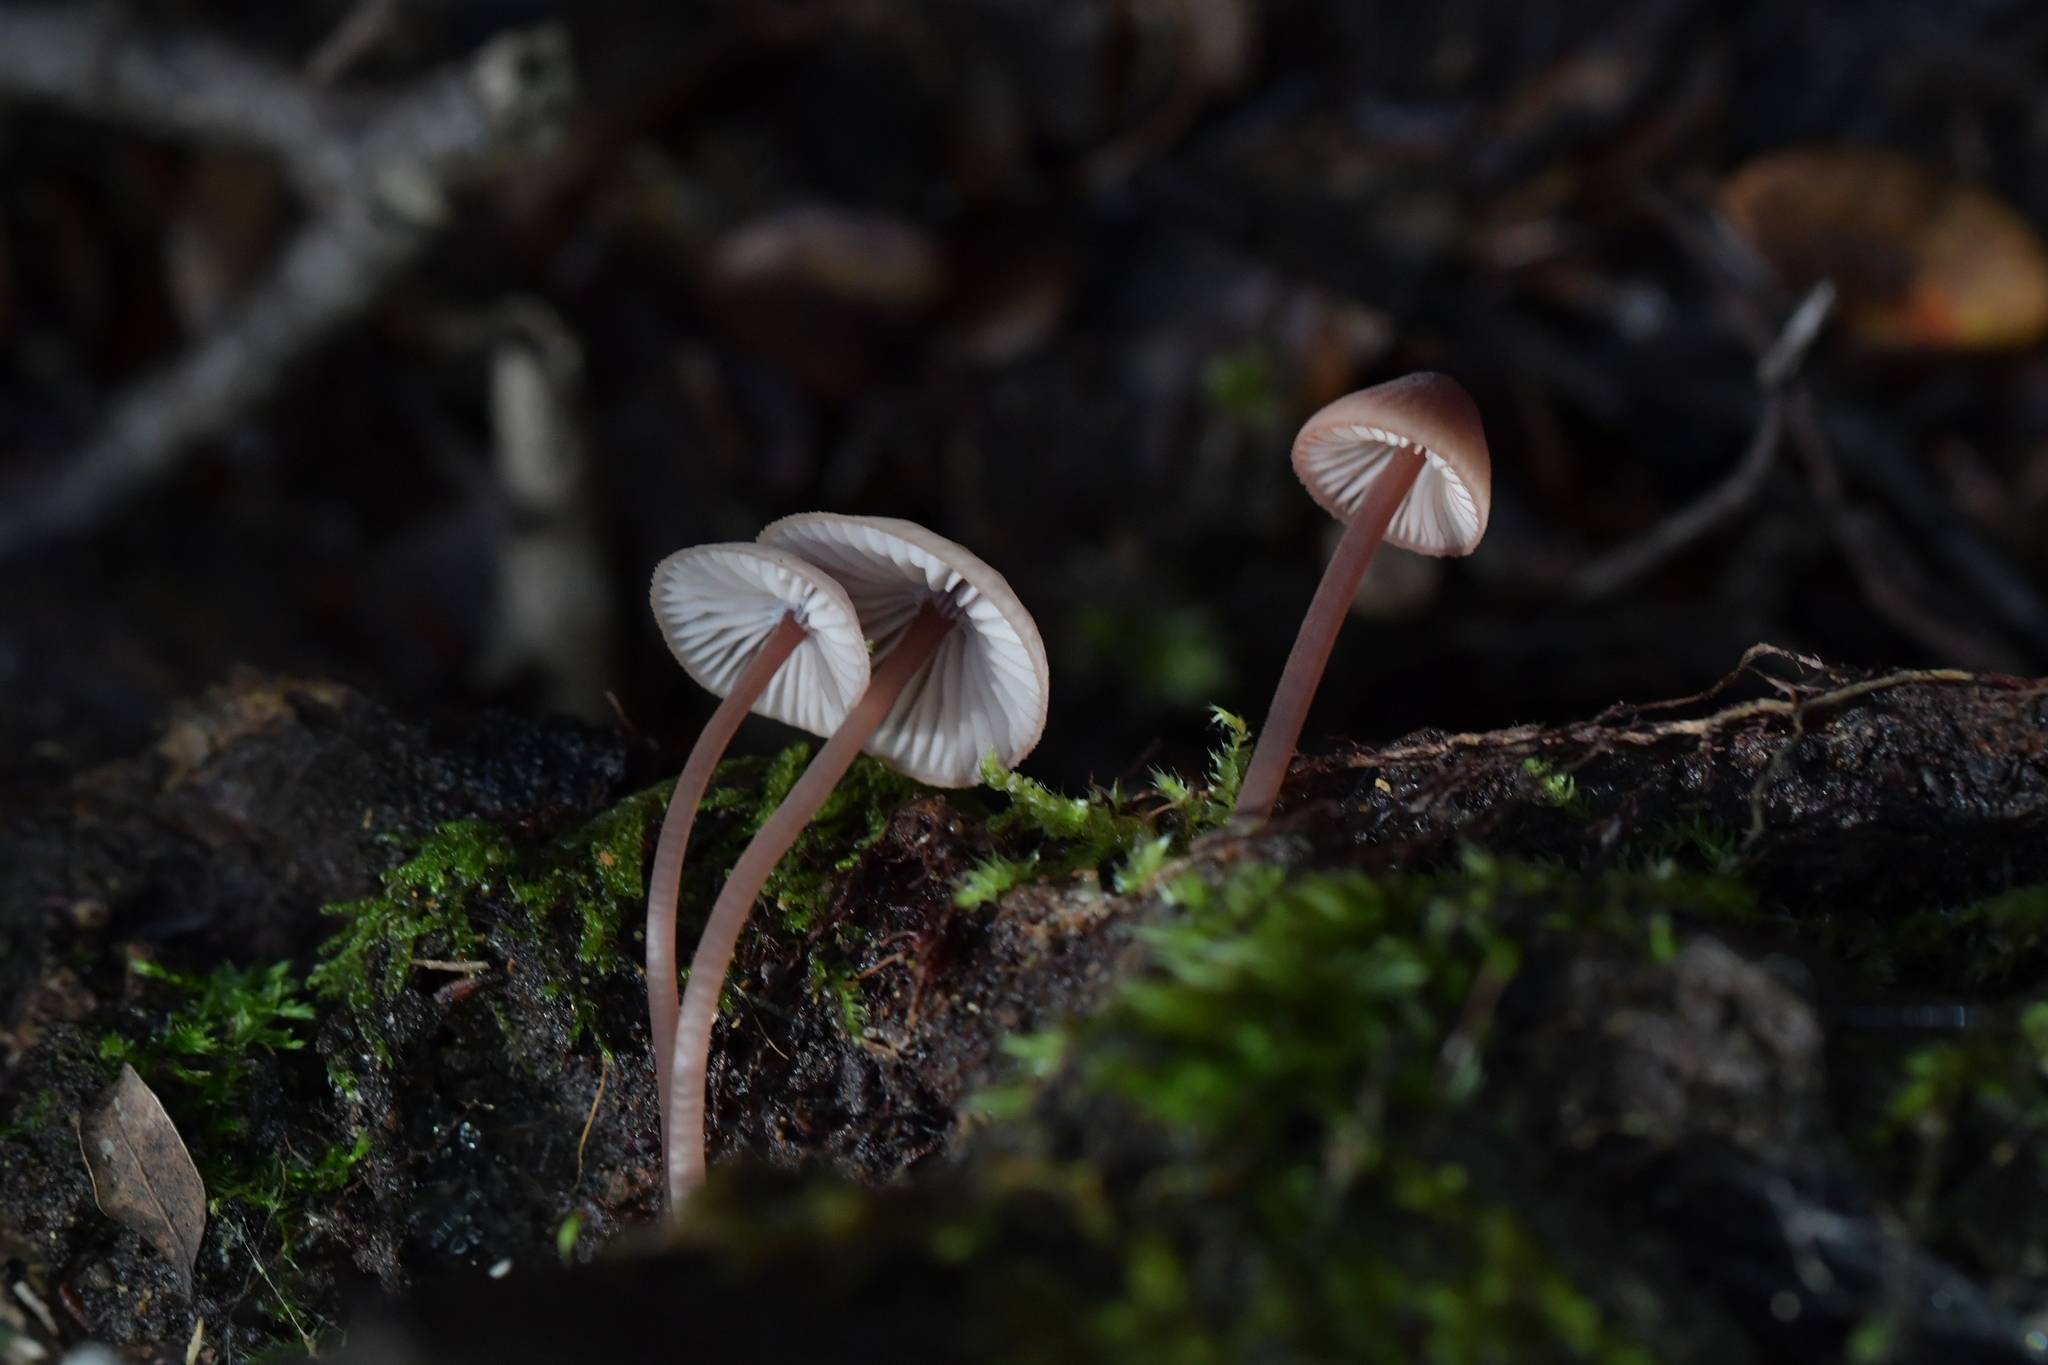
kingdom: Fungi
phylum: Basidiomycota
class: Agaricomycetes
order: Agaricales
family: Mycenaceae
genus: Mycena
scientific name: Mycena parsonsii
